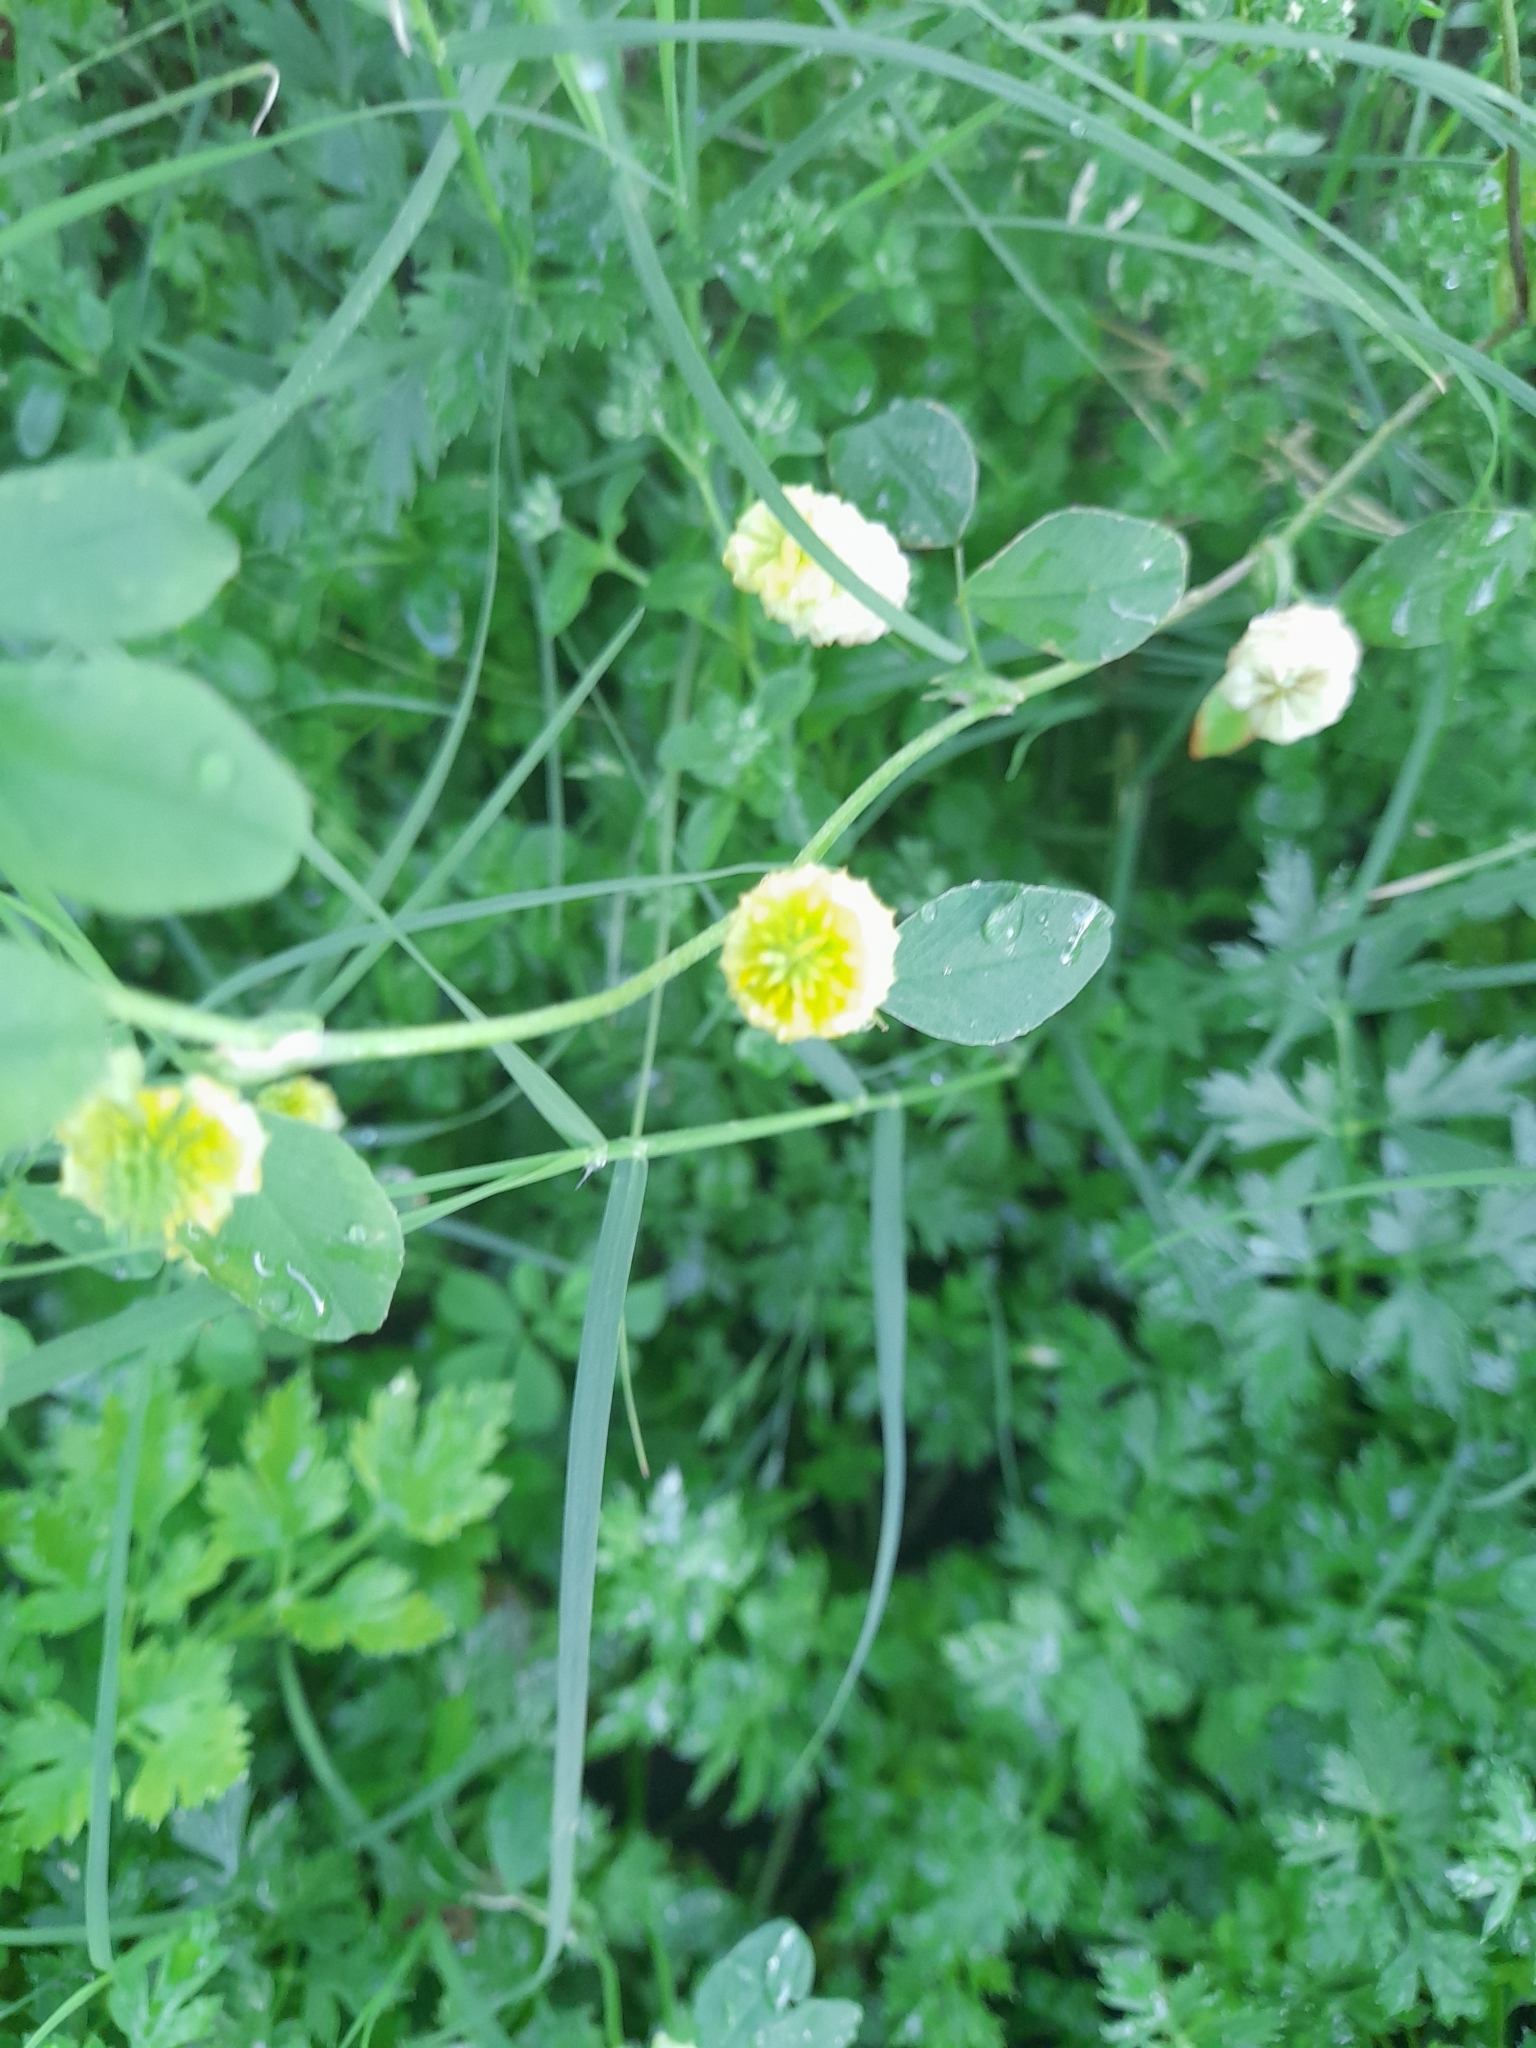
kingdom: Plantae
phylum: Tracheophyta
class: Magnoliopsida
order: Fabales
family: Fabaceae
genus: Trifolium
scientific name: Trifolium campestre
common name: Field clover
